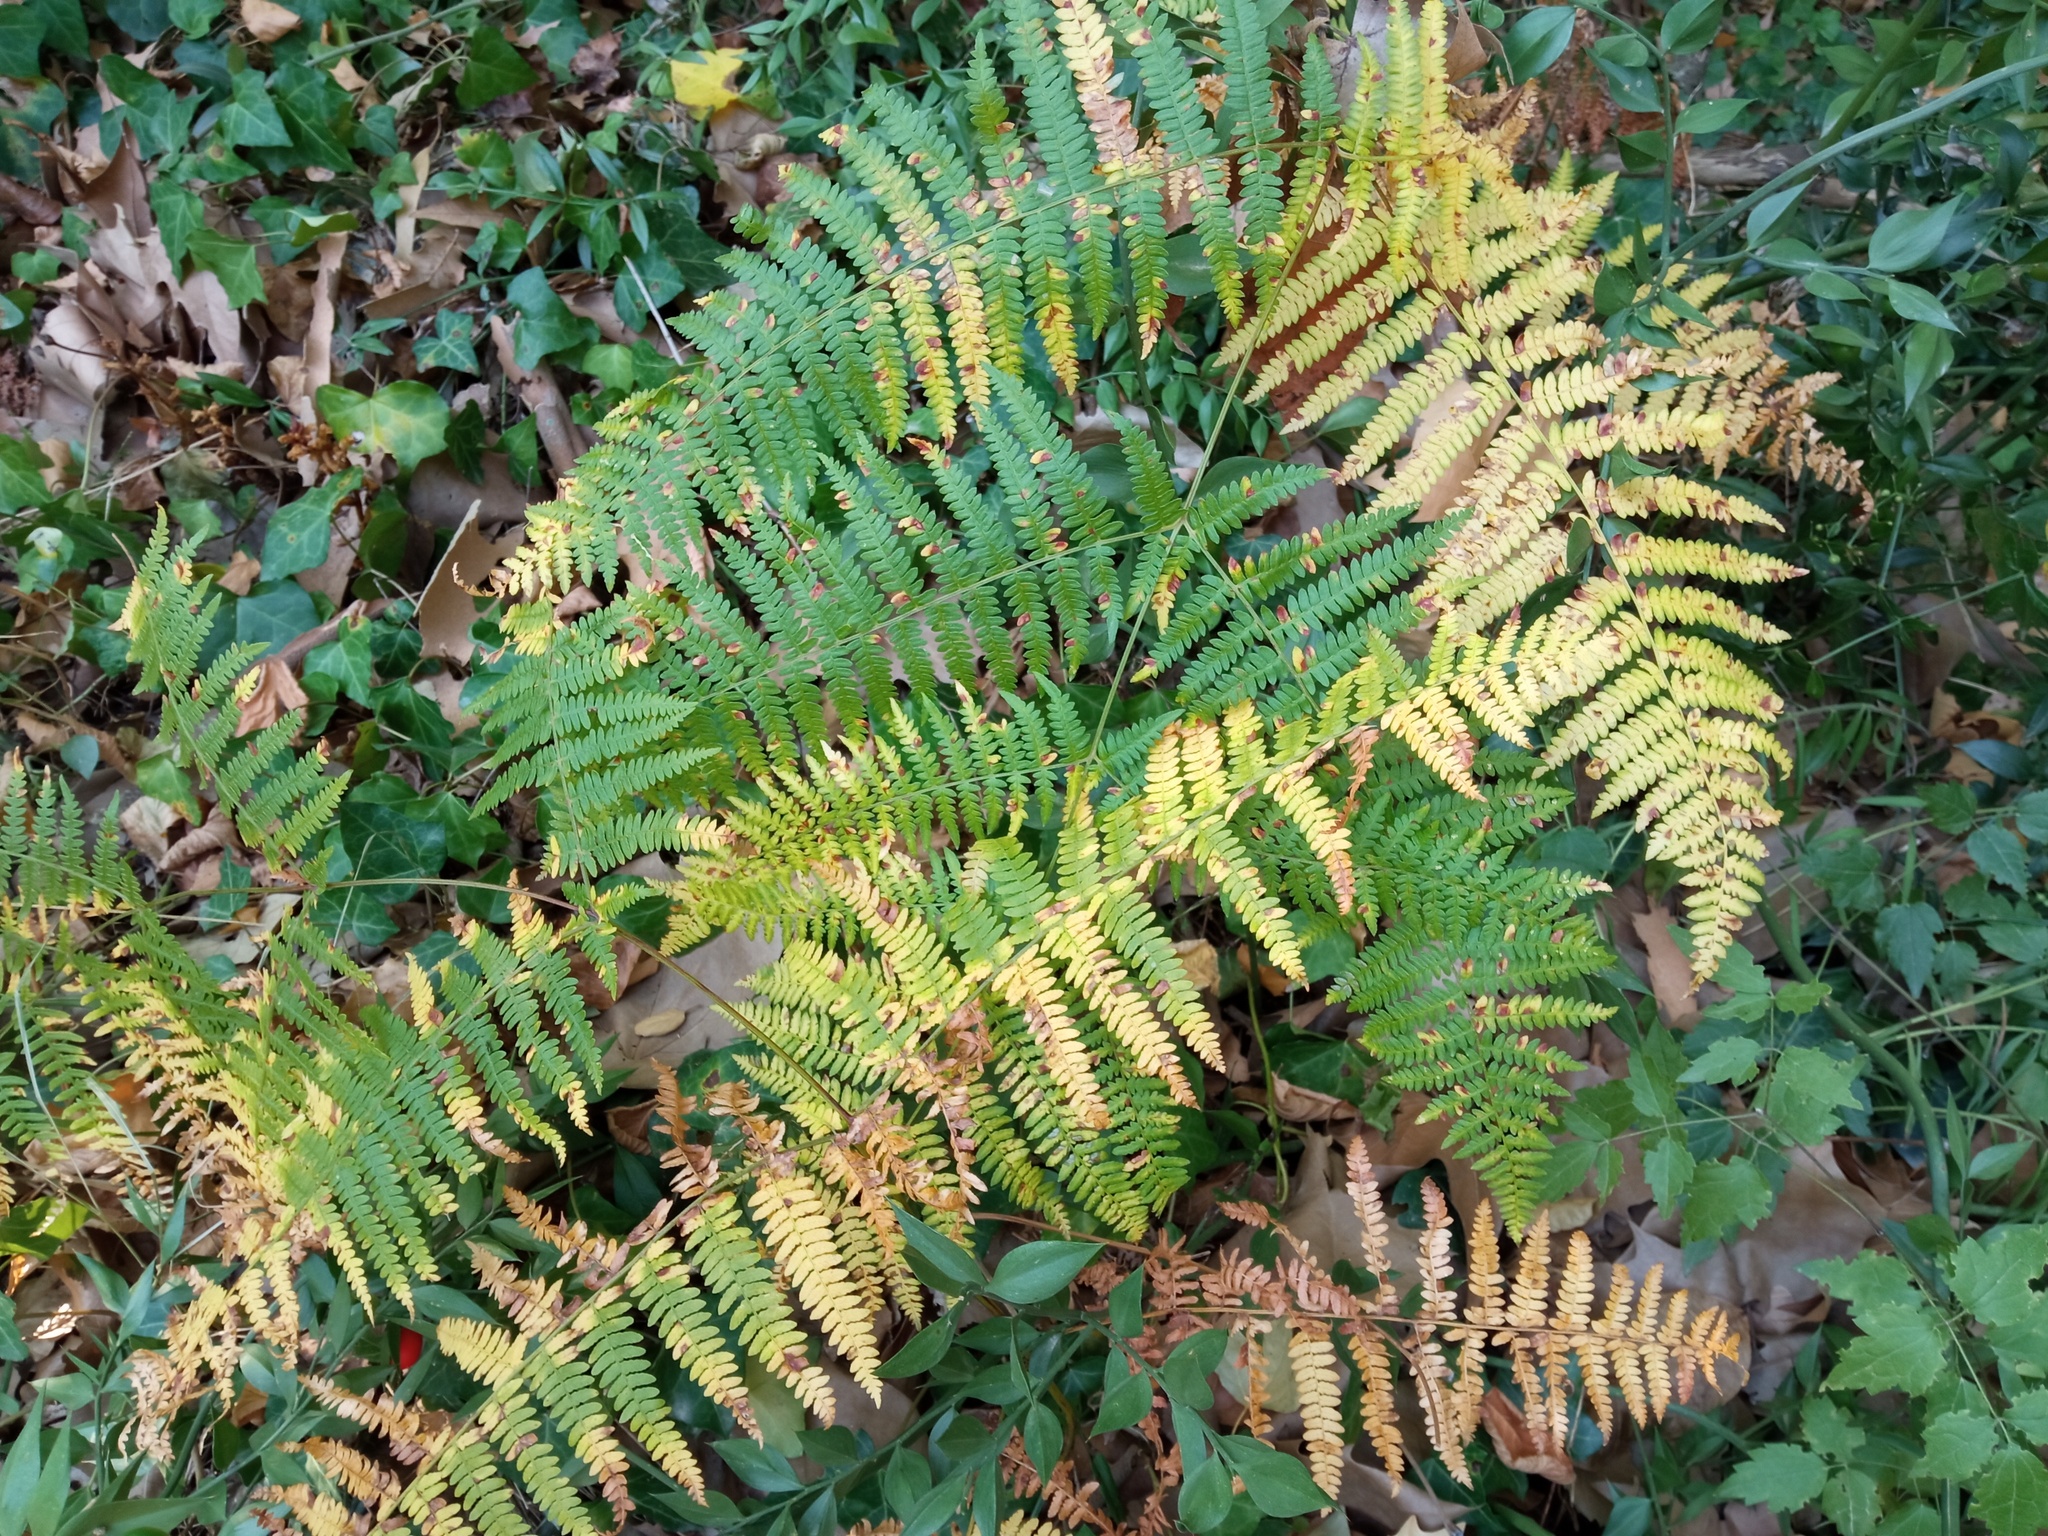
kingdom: Plantae
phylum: Tracheophyta
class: Polypodiopsida
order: Polypodiales
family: Dennstaedtiaceae
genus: Pteridium
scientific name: Pteridium aquilinum
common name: Bracken
